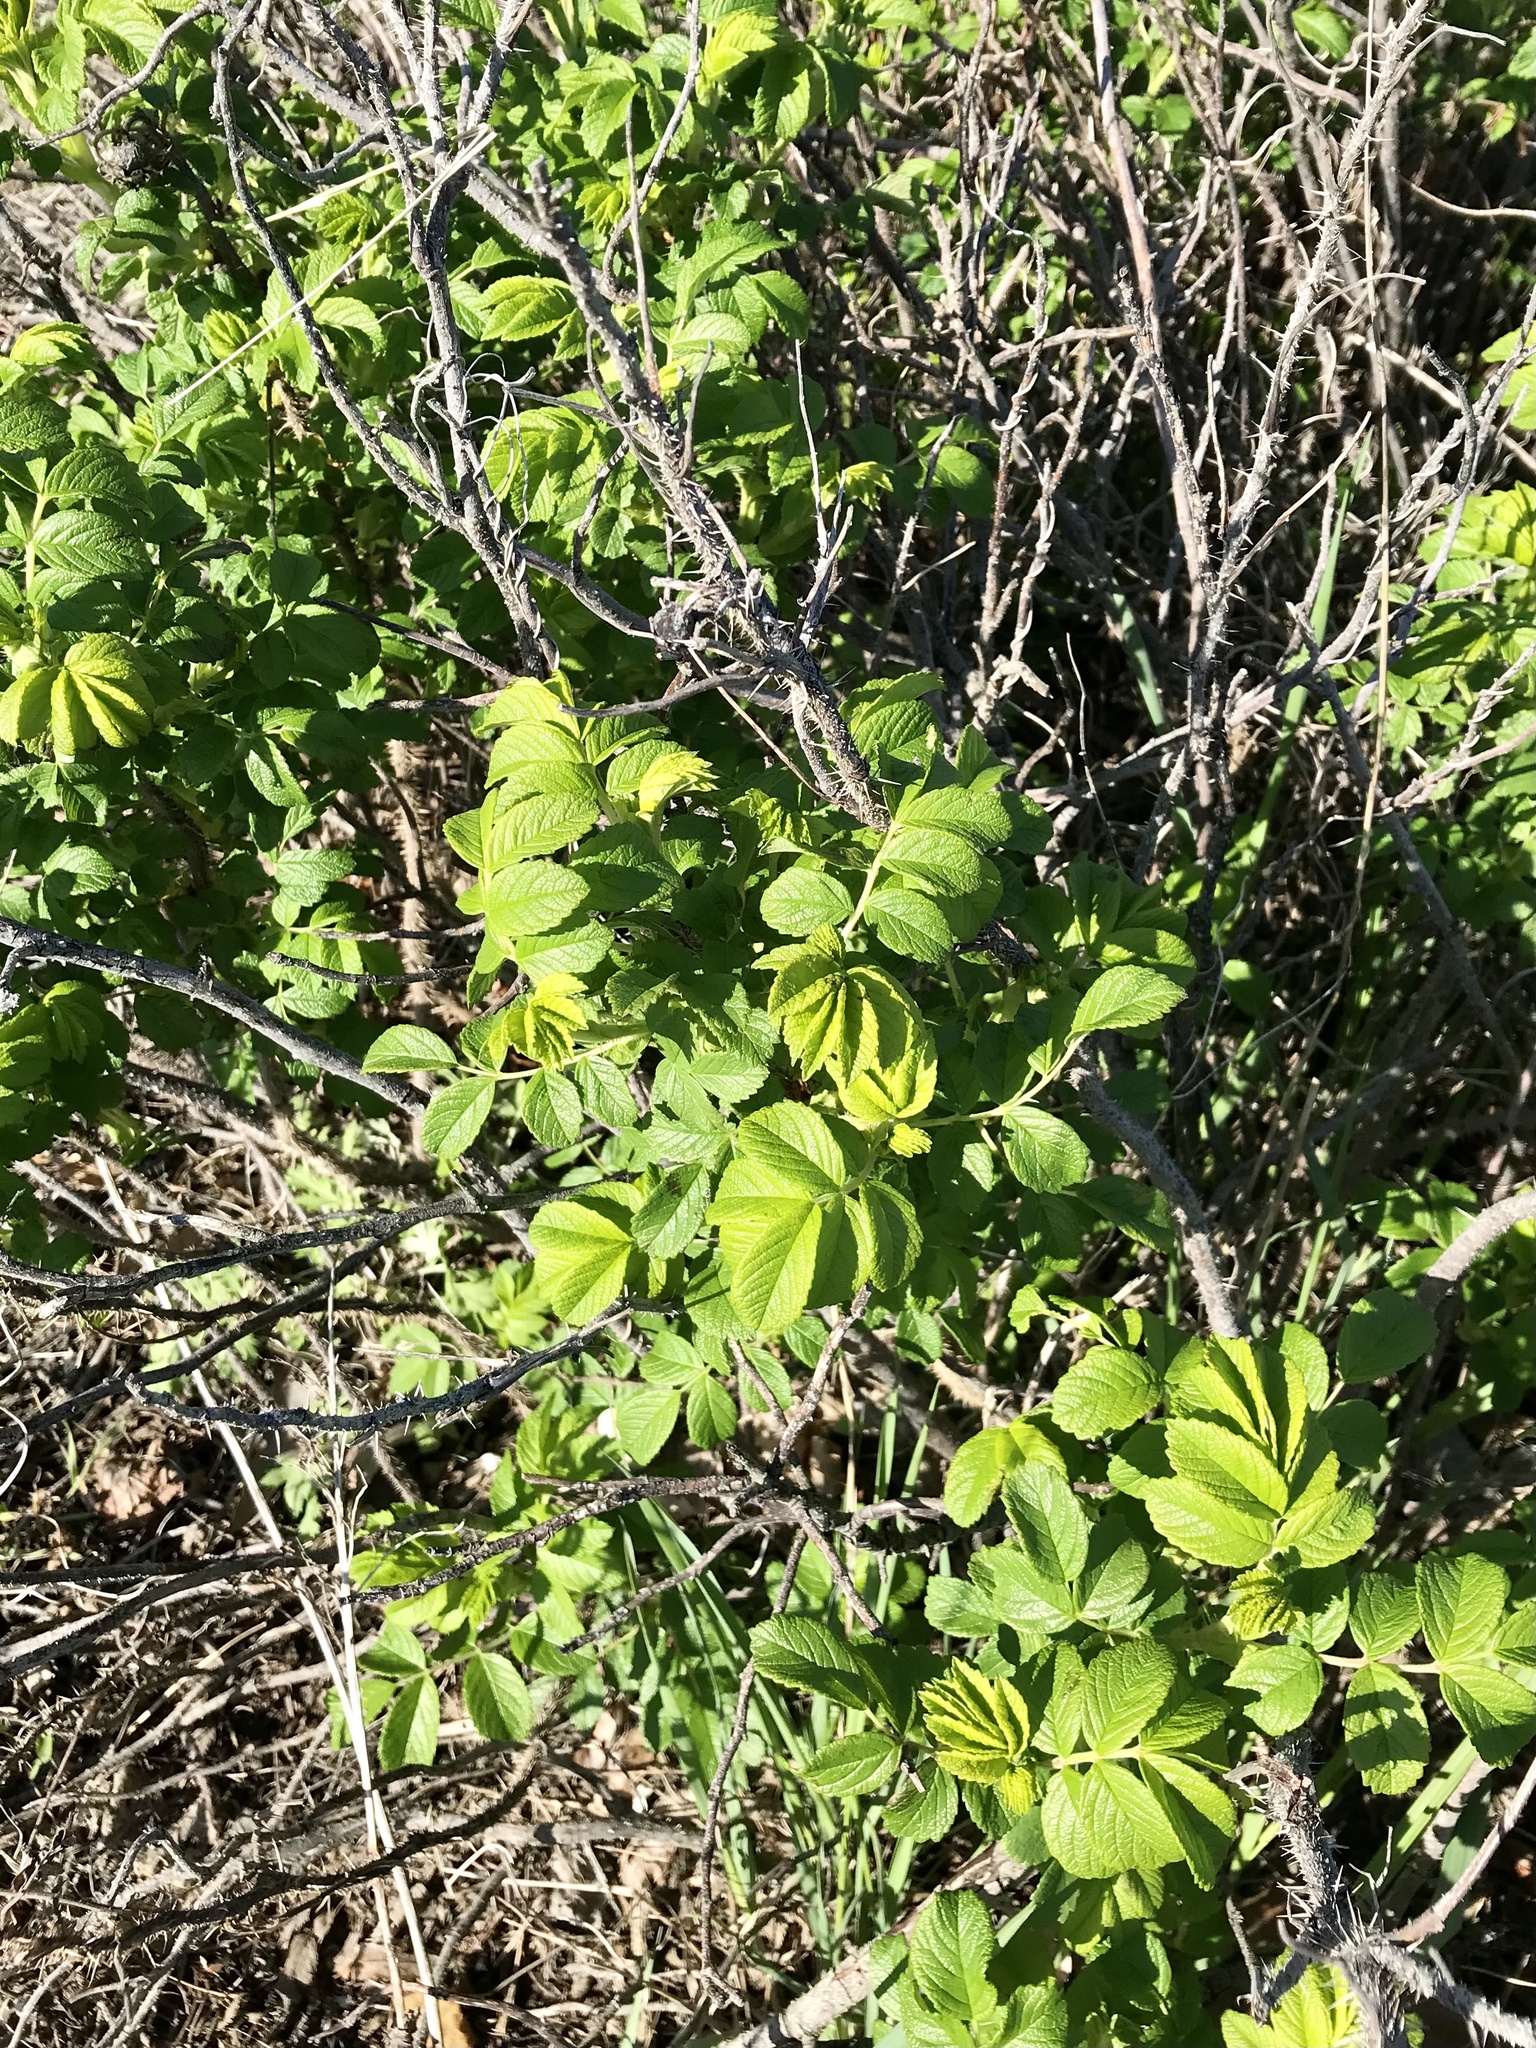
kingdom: Plantae
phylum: Tracheophyta
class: Magnoliopsida
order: Rosales
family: Rosaceae
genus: Rosa
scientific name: Rosa rugosa
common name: Japanese rose
